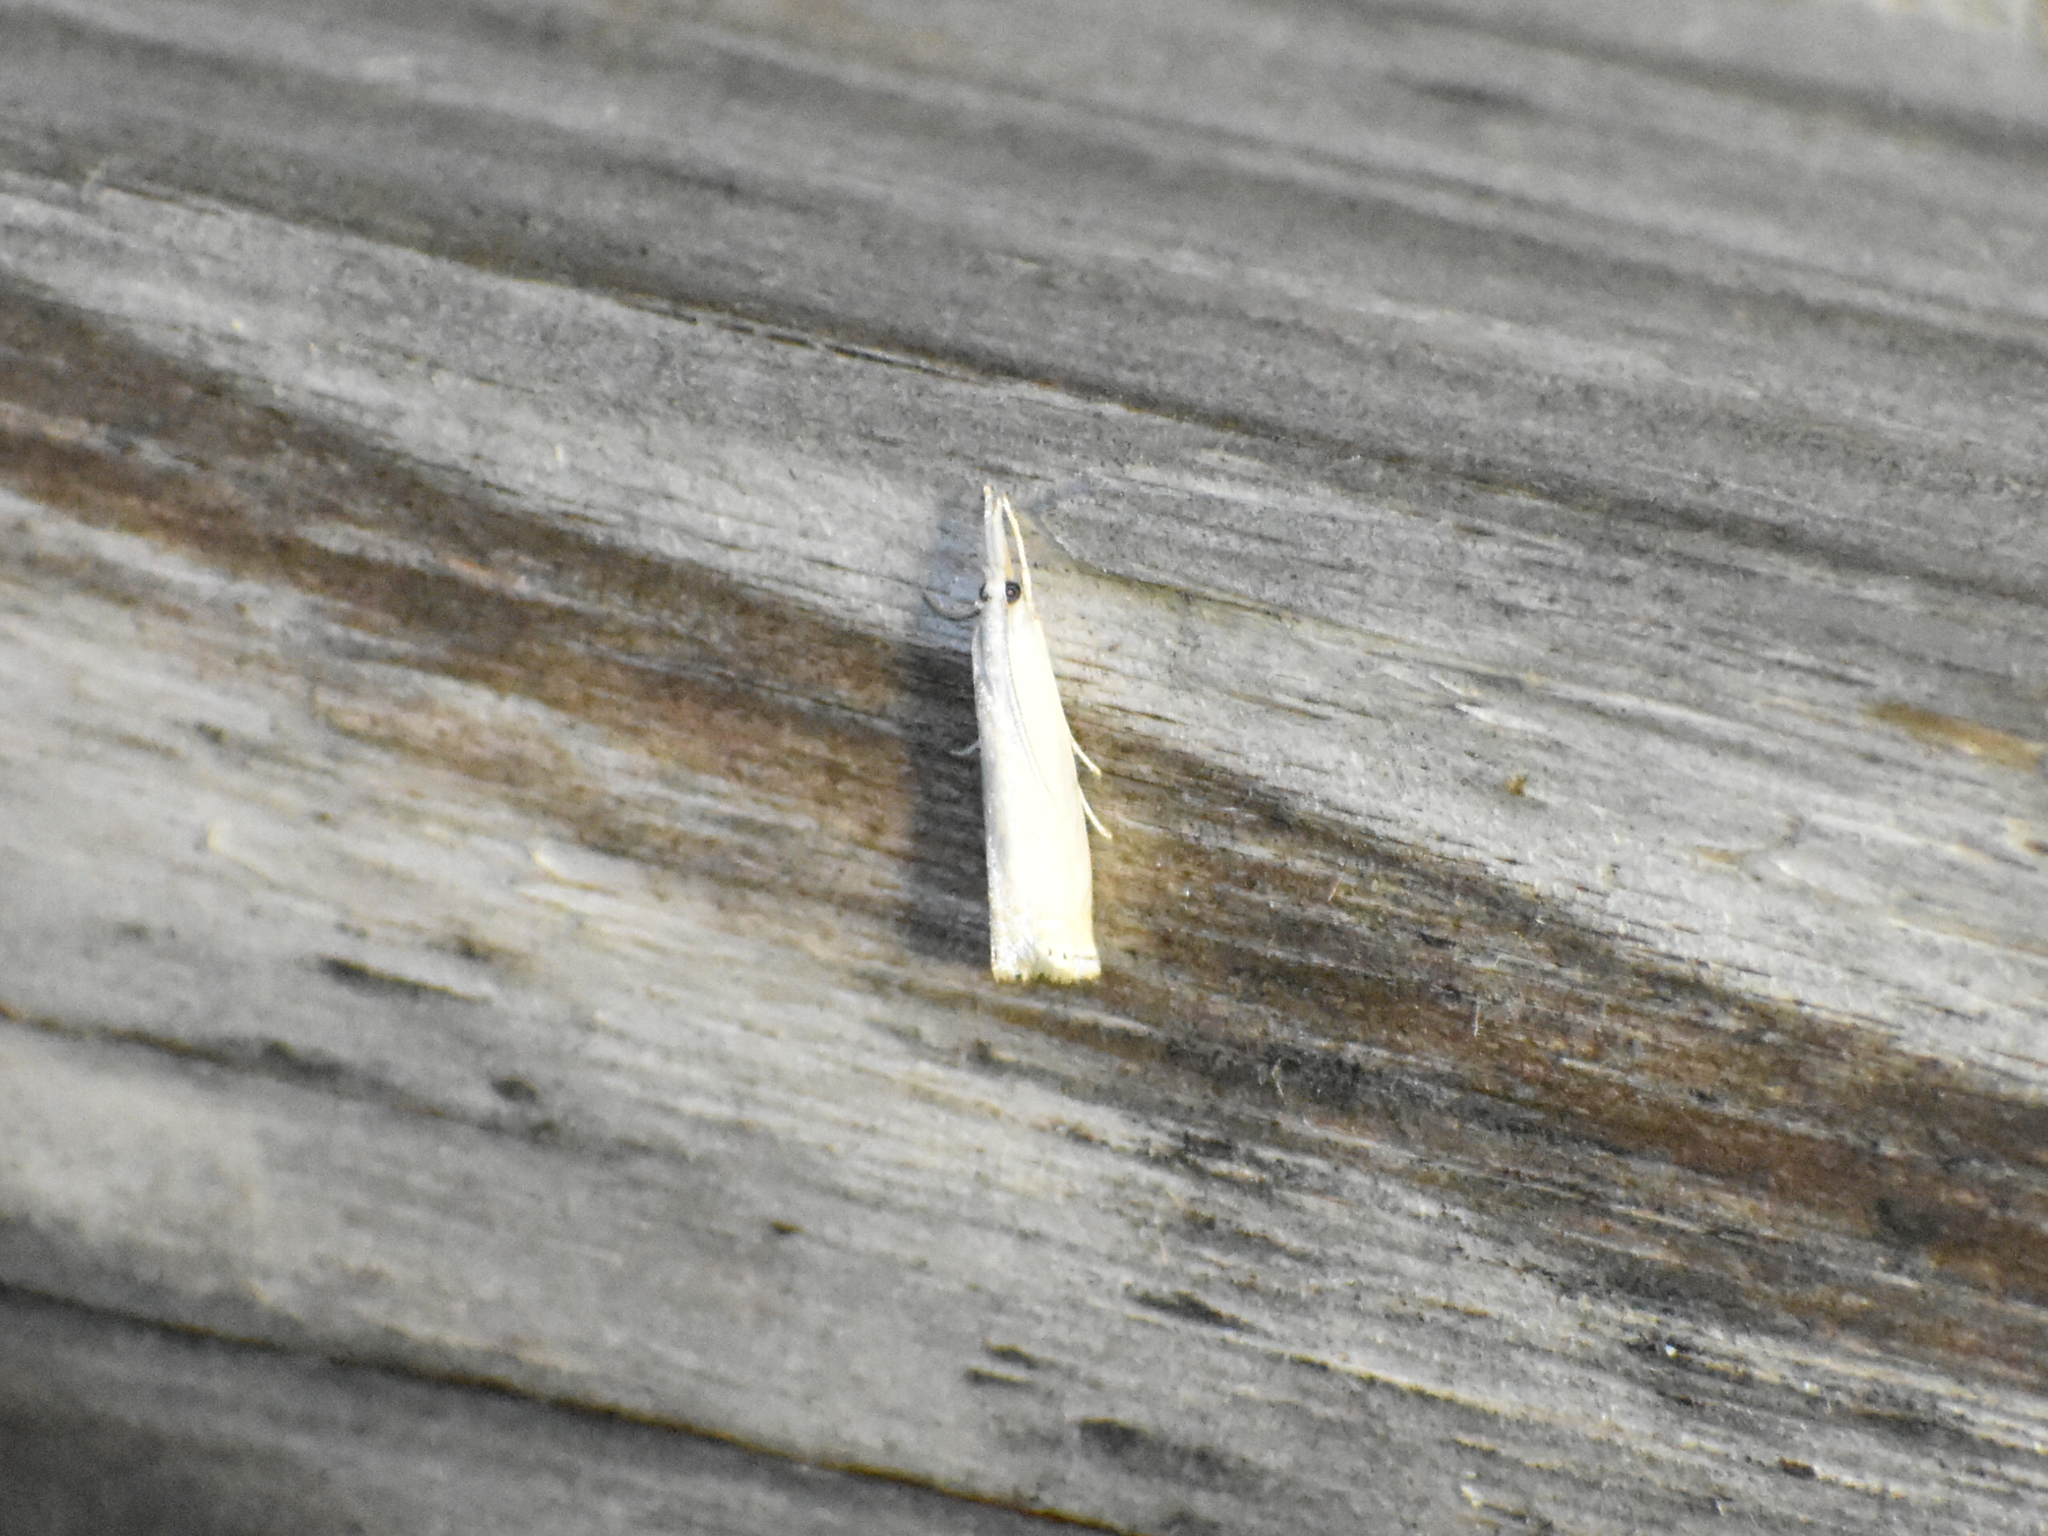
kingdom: Animalia
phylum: Arthropoda
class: Insecta
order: Lepidoptera
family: Crambidae
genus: Crambus
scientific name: Crambus albellus
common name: Small white grass-veneer
